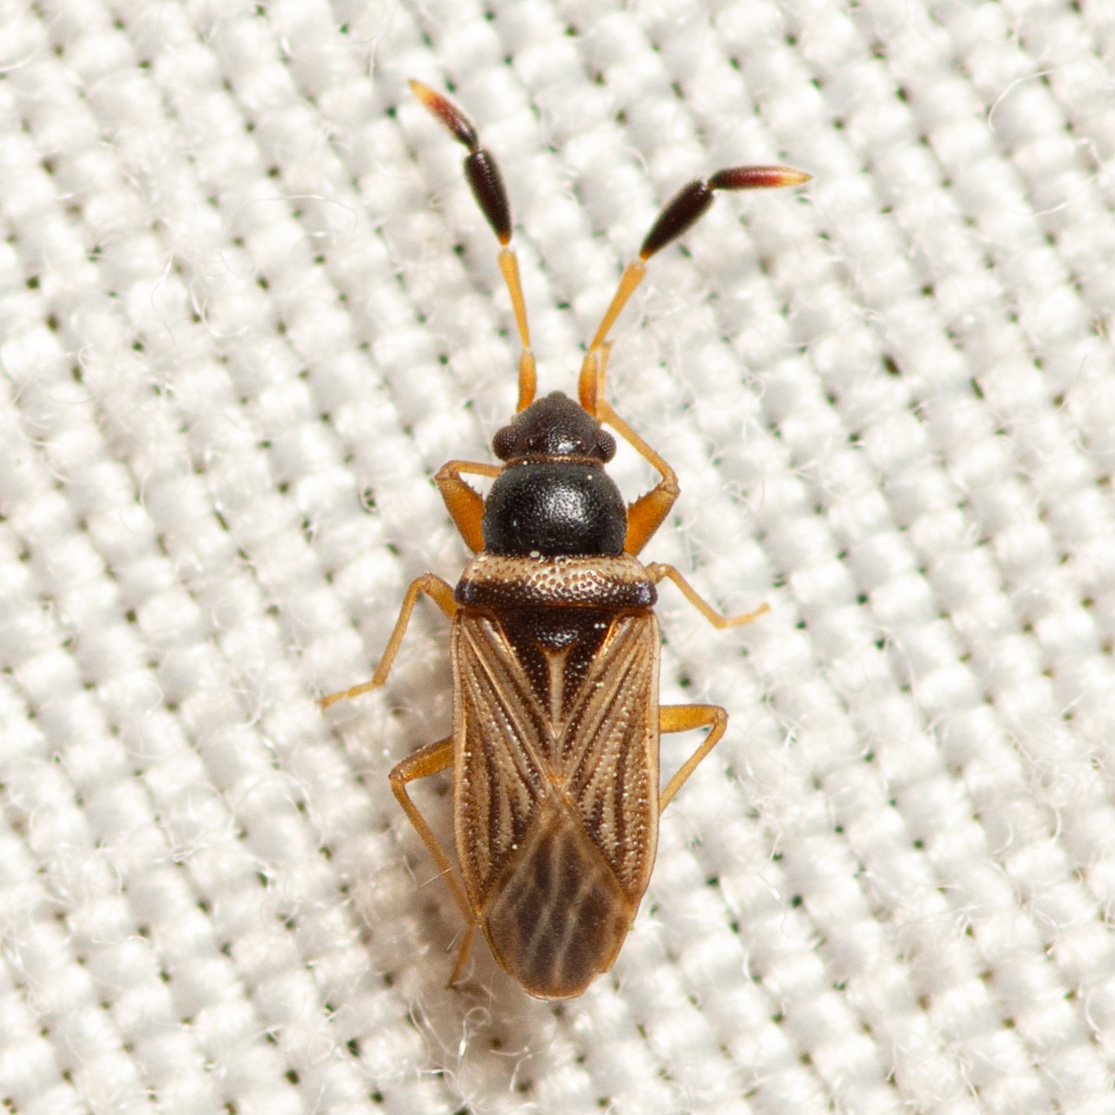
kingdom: Animalia
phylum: Arthropoda
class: Insecta
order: Hemiptera
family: Rhyparochromidae
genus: Ptochiomera
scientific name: Ptochiomera nodosa
